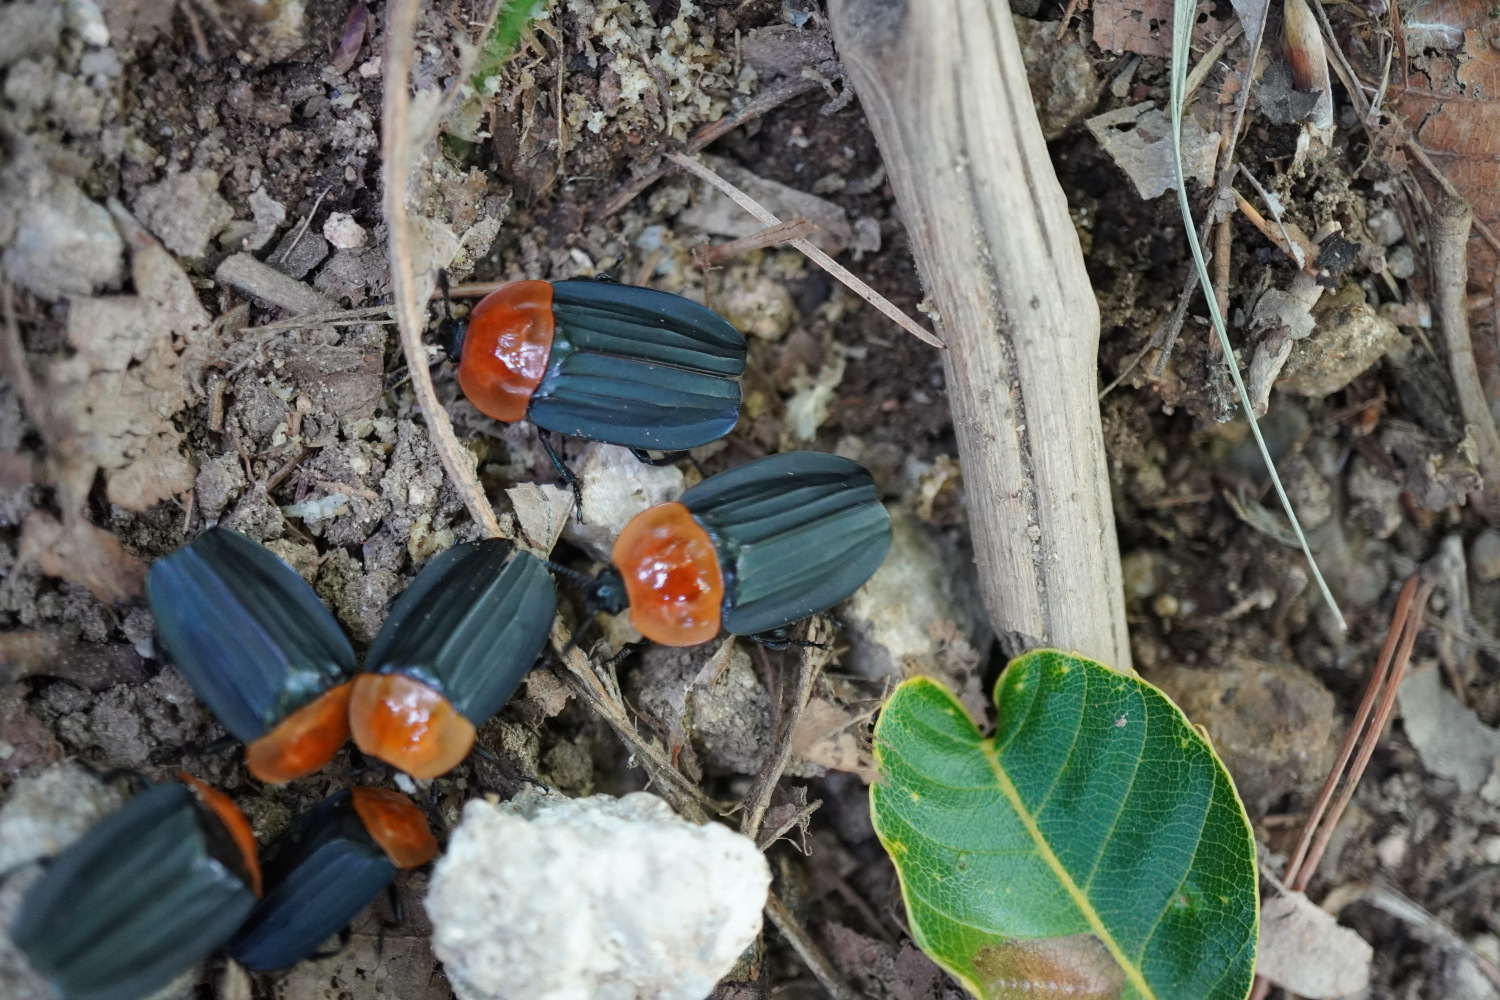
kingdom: Animalia
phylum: Arthropoda
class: Insecta
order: Coleoptera
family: Staphylinidae
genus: Necrophila
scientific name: Necrophila brunnicollis
